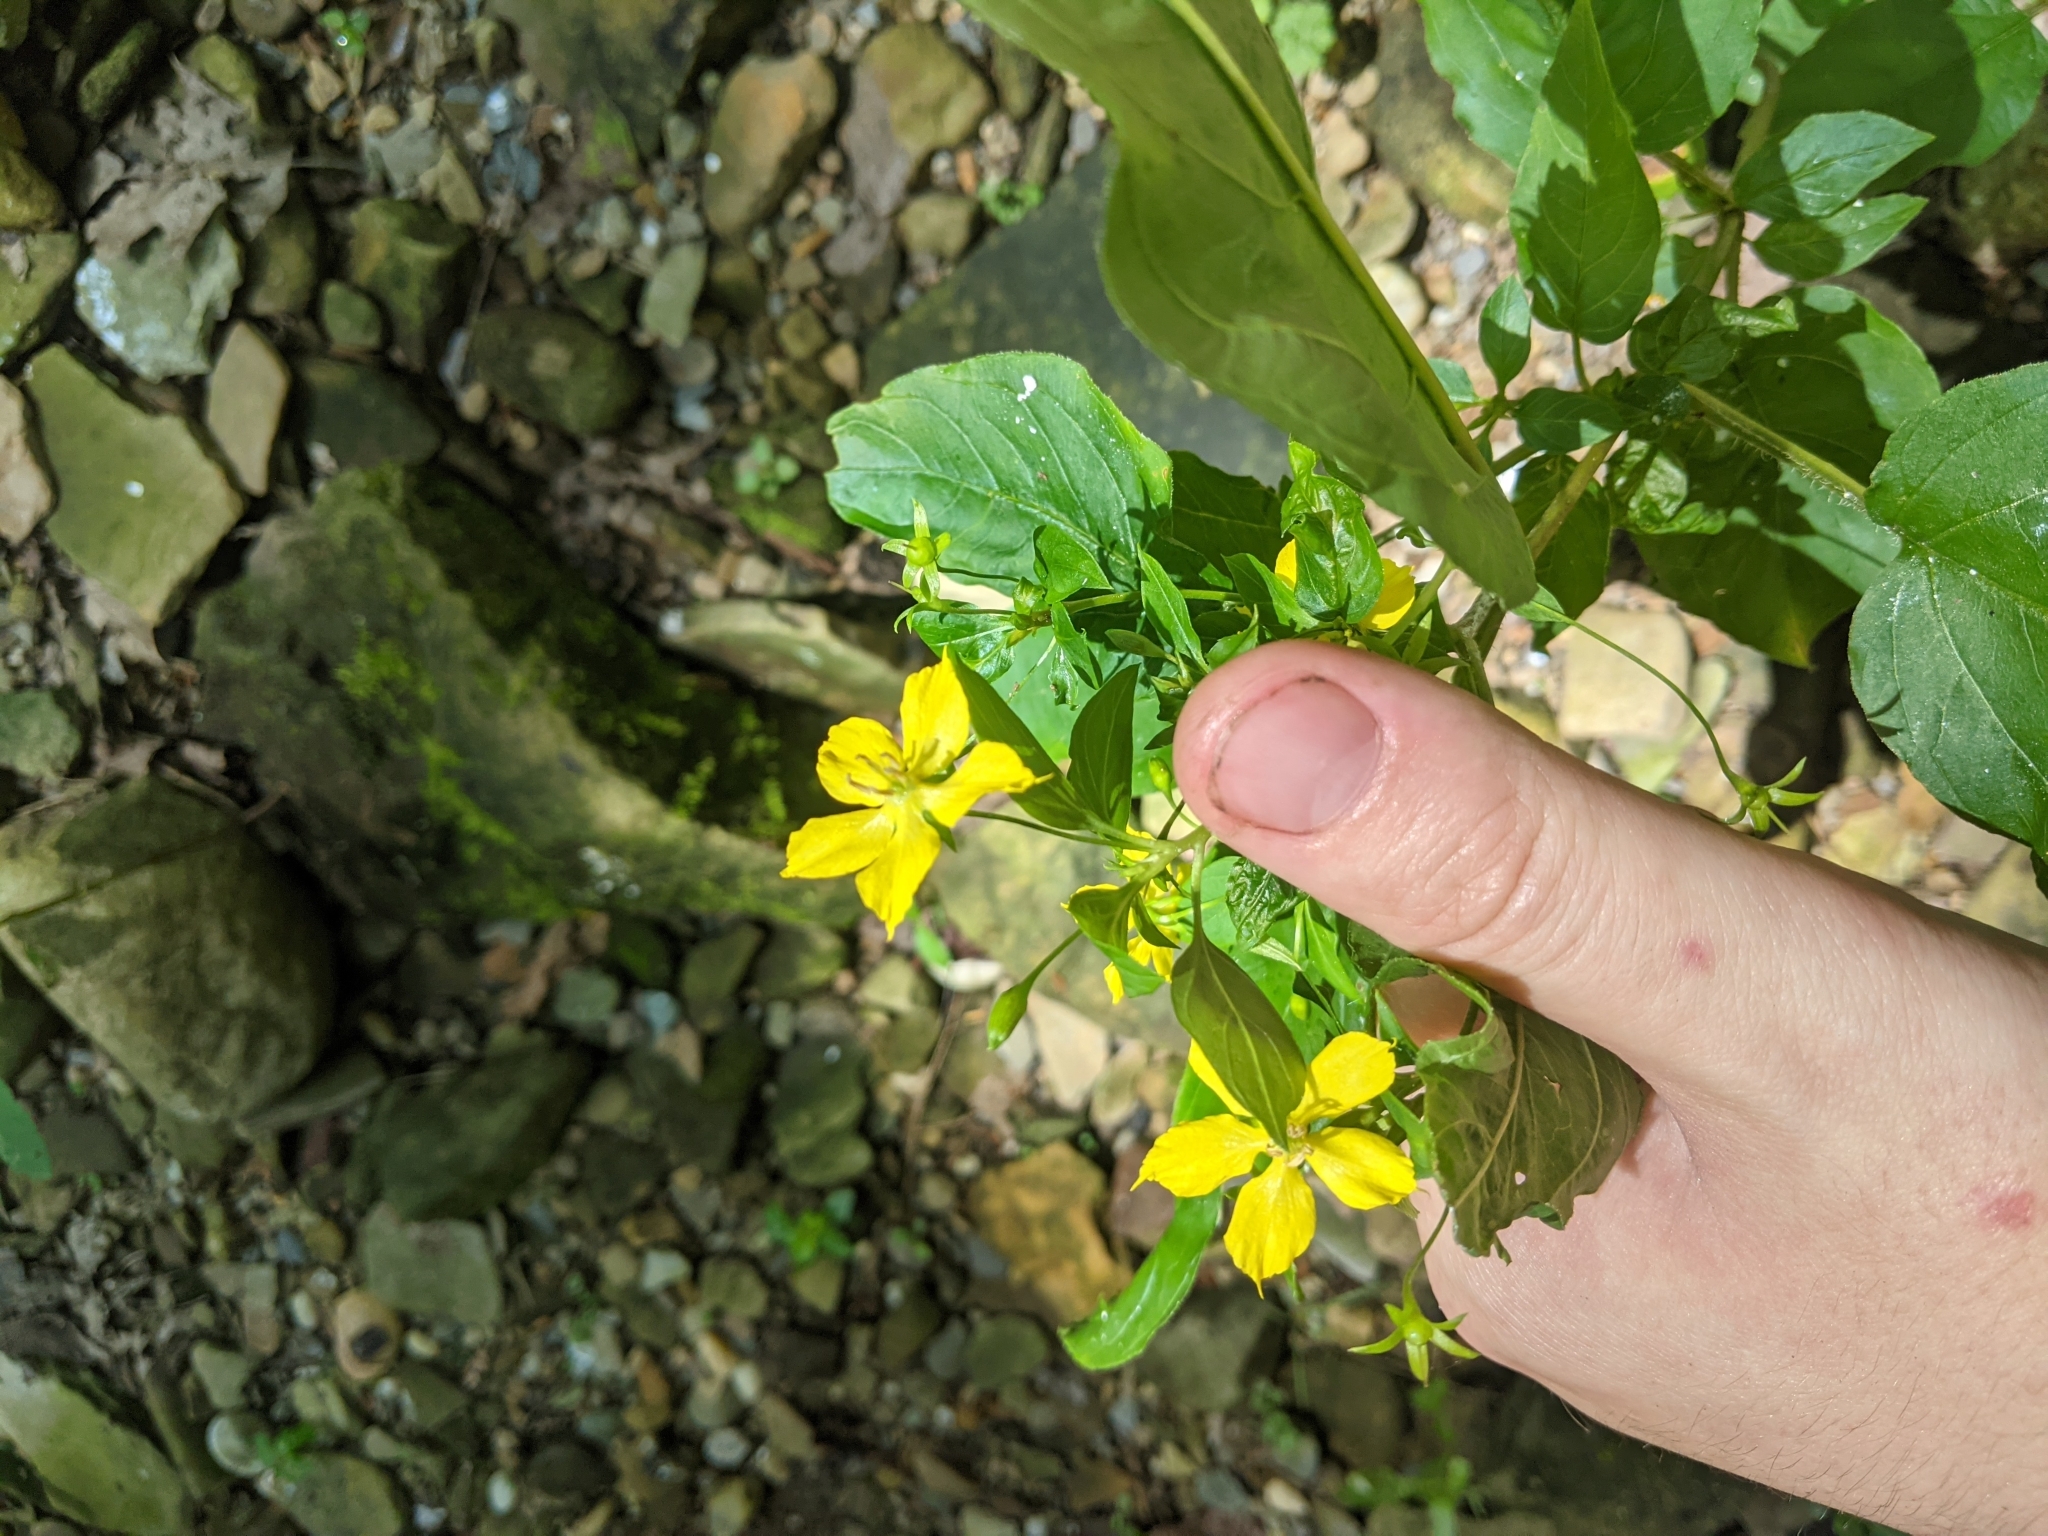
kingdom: Plantae
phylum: Tracheophyta
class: Magnoliopsida
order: Ericales
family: Primulaceae
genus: Lysimachia
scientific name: Lysimachia ciliata
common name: Fringed loosestrife
